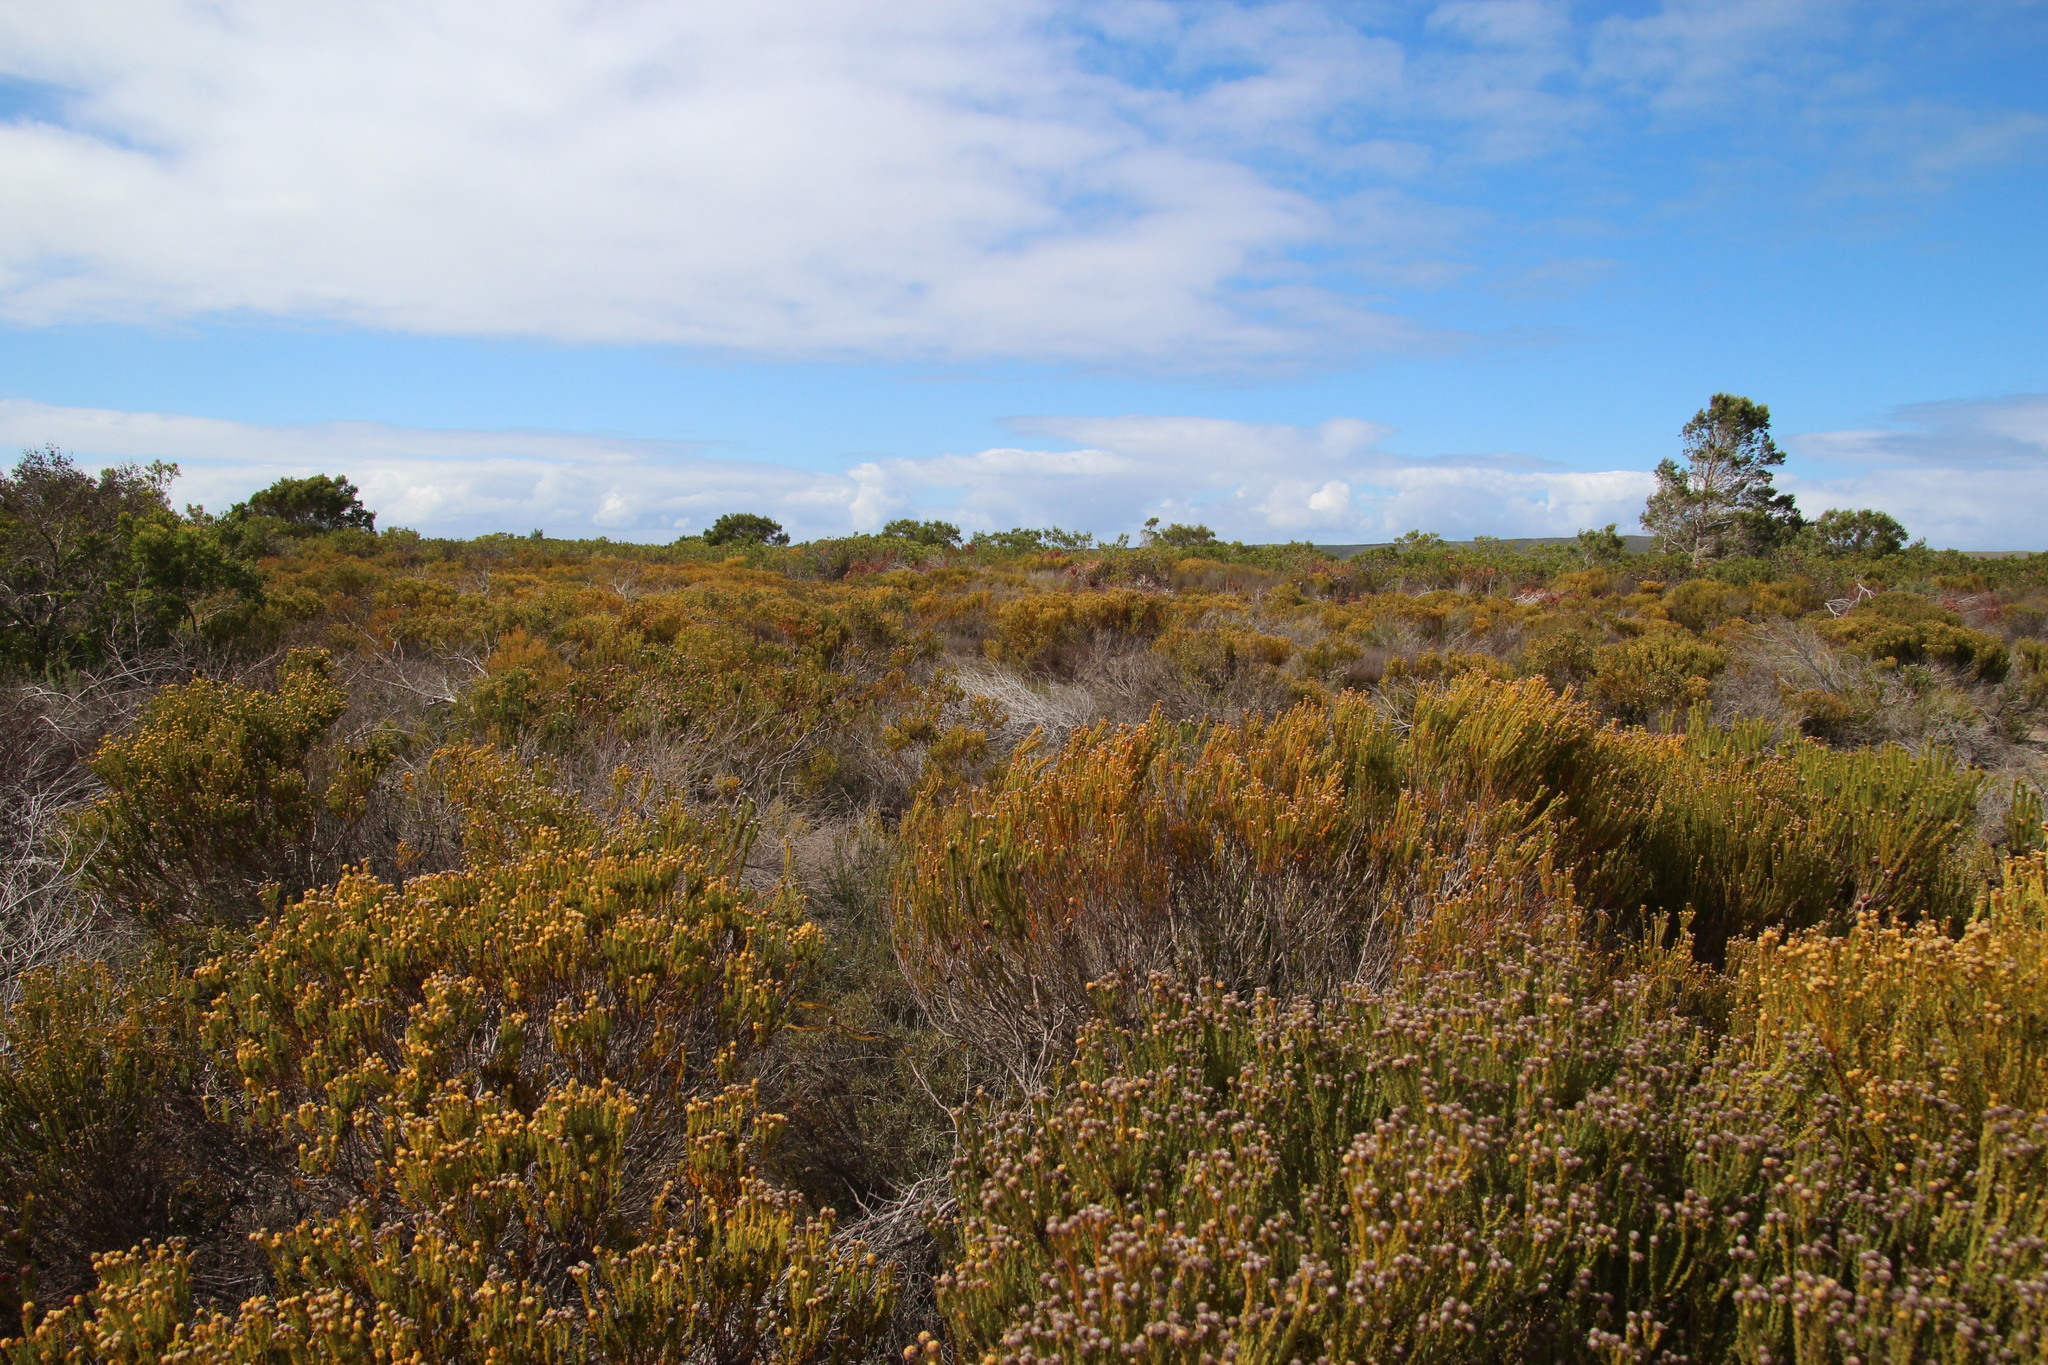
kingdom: Plantae
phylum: Tracheophyta
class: Magnoliopsida
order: Proteales
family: Proteaceae
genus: Leucadendron
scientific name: Leucadendron linifolium
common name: Line-leaf conebush
